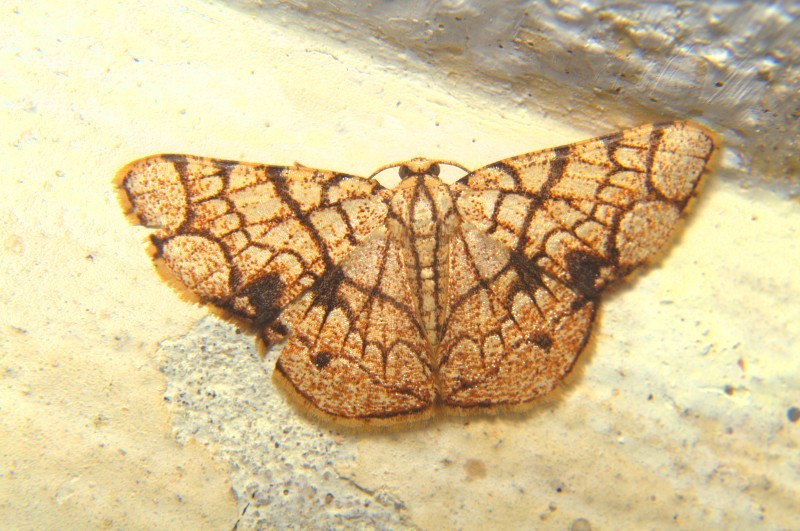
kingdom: Animalia
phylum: Arthropoda
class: Insecta
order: Lepidoptera
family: Geometridae
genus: Heterostegane
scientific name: Heterostegane subtessellata
